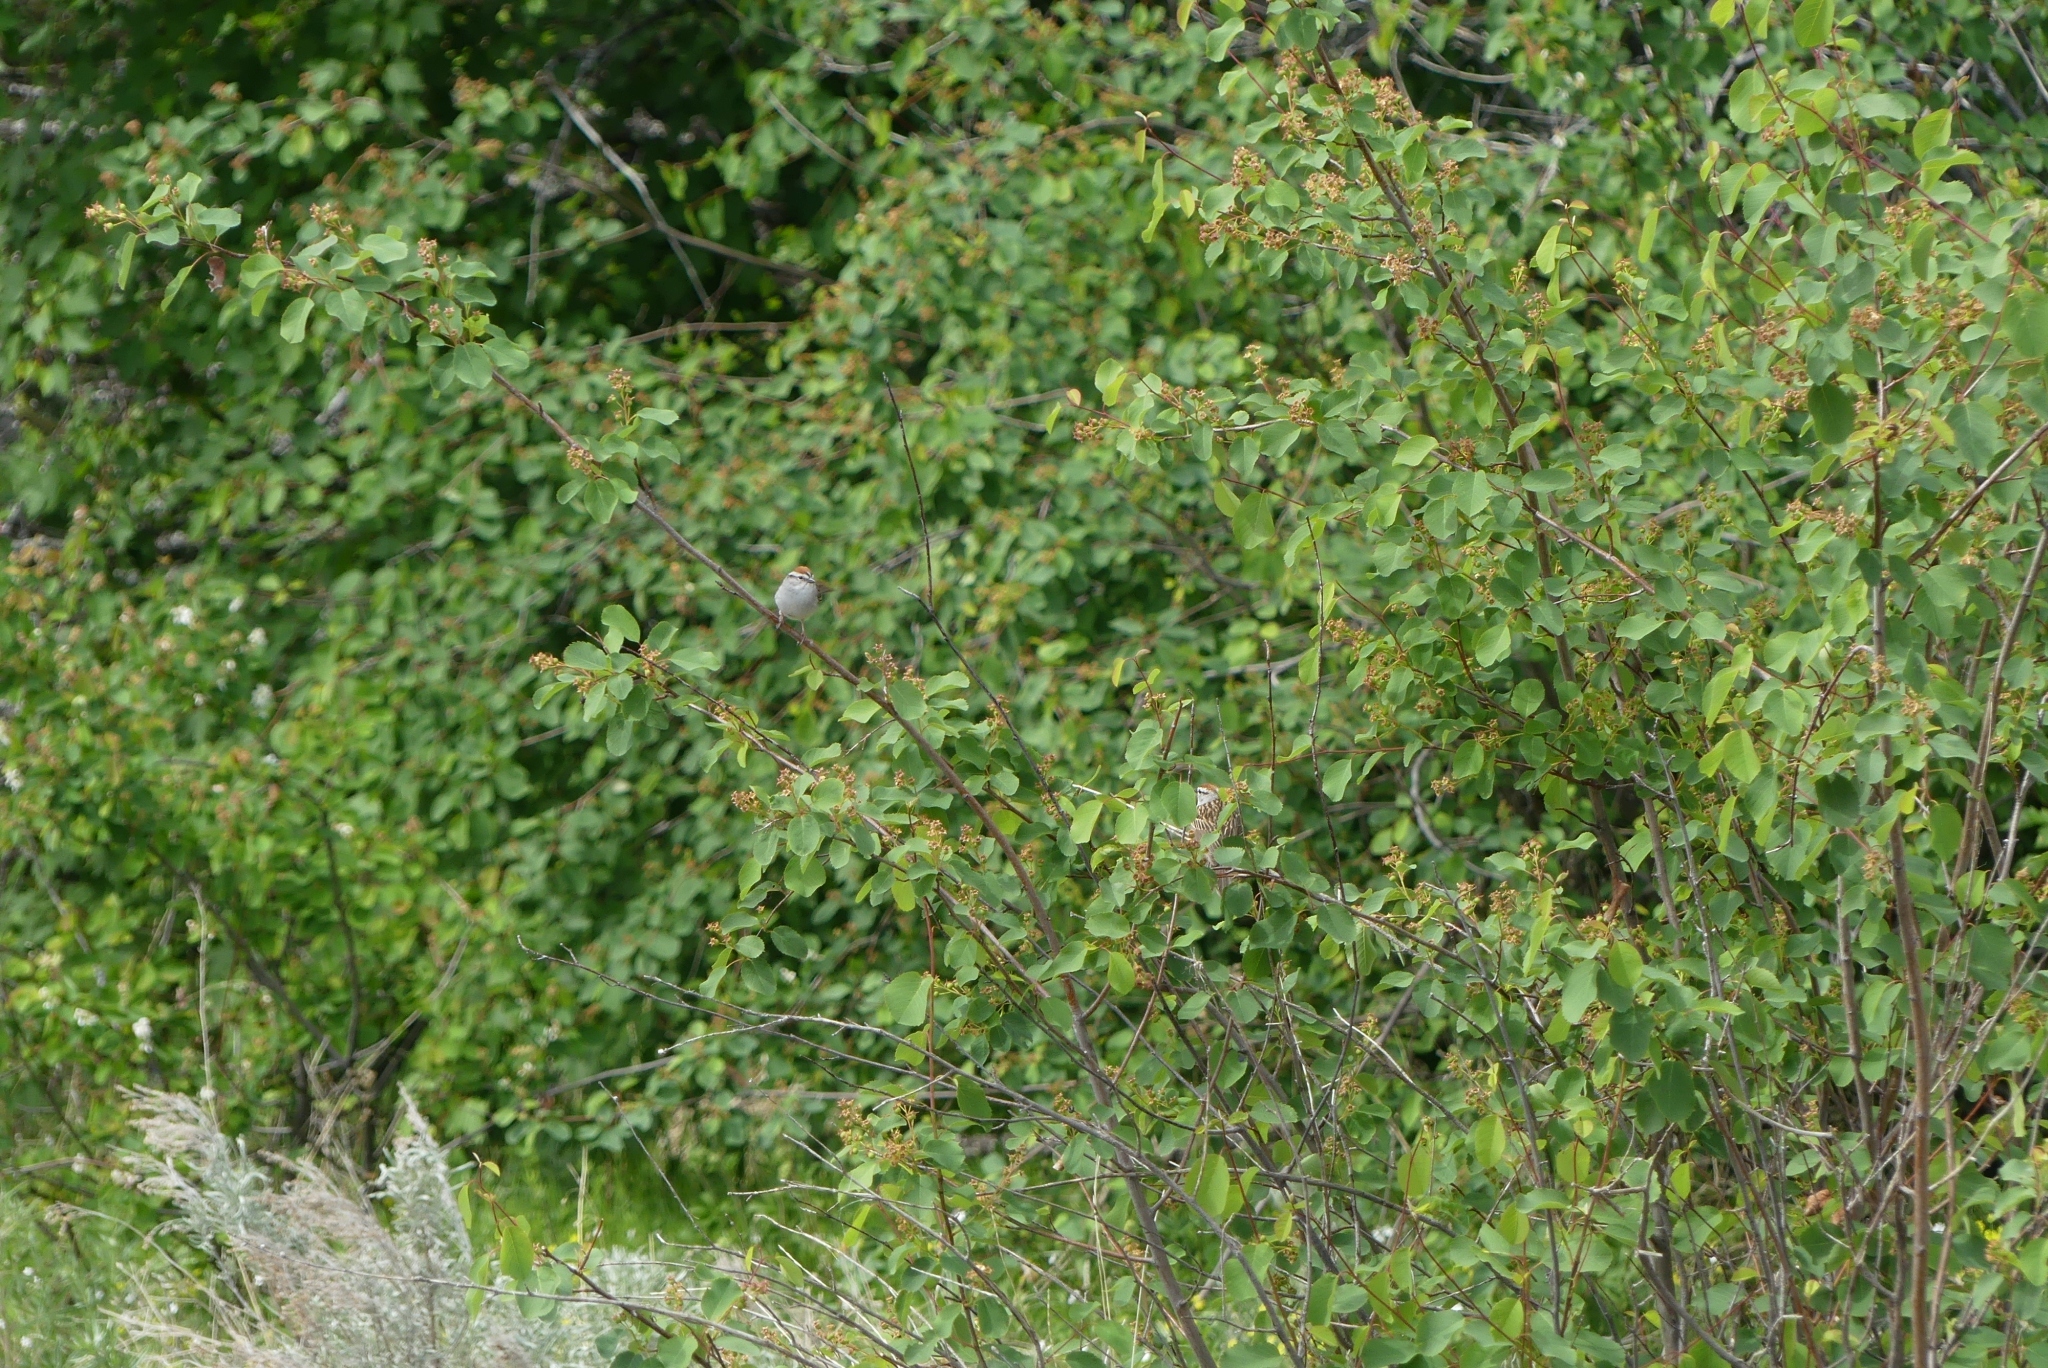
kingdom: Animalia
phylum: Chordata
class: Aves
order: Passeriformes
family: Passerellidae
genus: Spizella
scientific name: Spizella passerina
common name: Chipping sparrow
